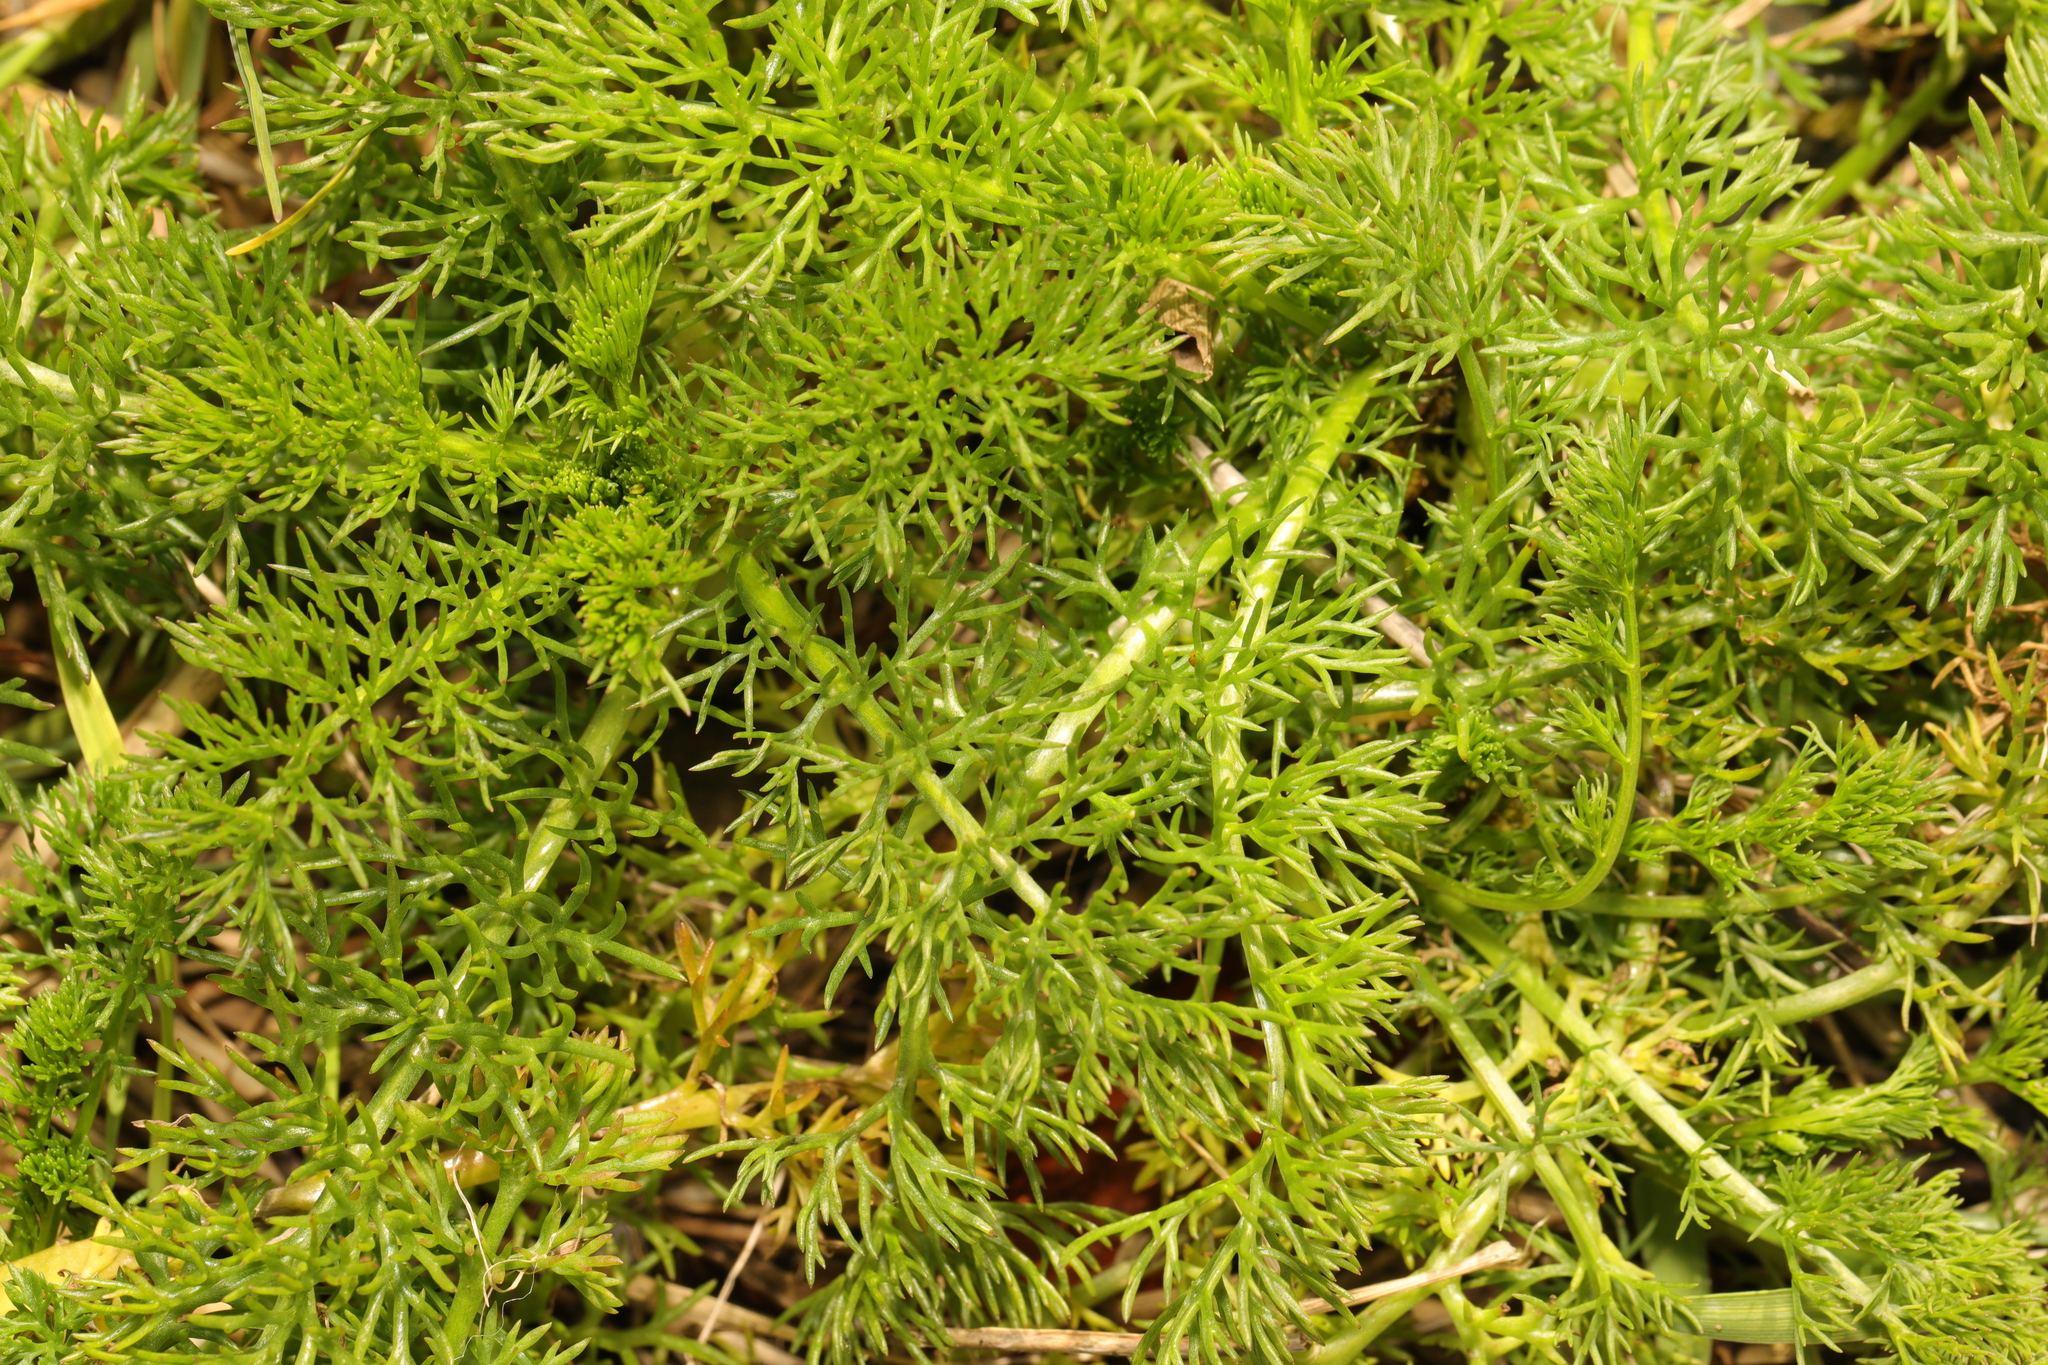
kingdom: Plantae
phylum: Tracheophyta
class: Magnoliopsida
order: Asterales
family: Asteraceae
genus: Tripleurospermum
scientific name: Tripleurospermum maritimum
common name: Sea mayweed
